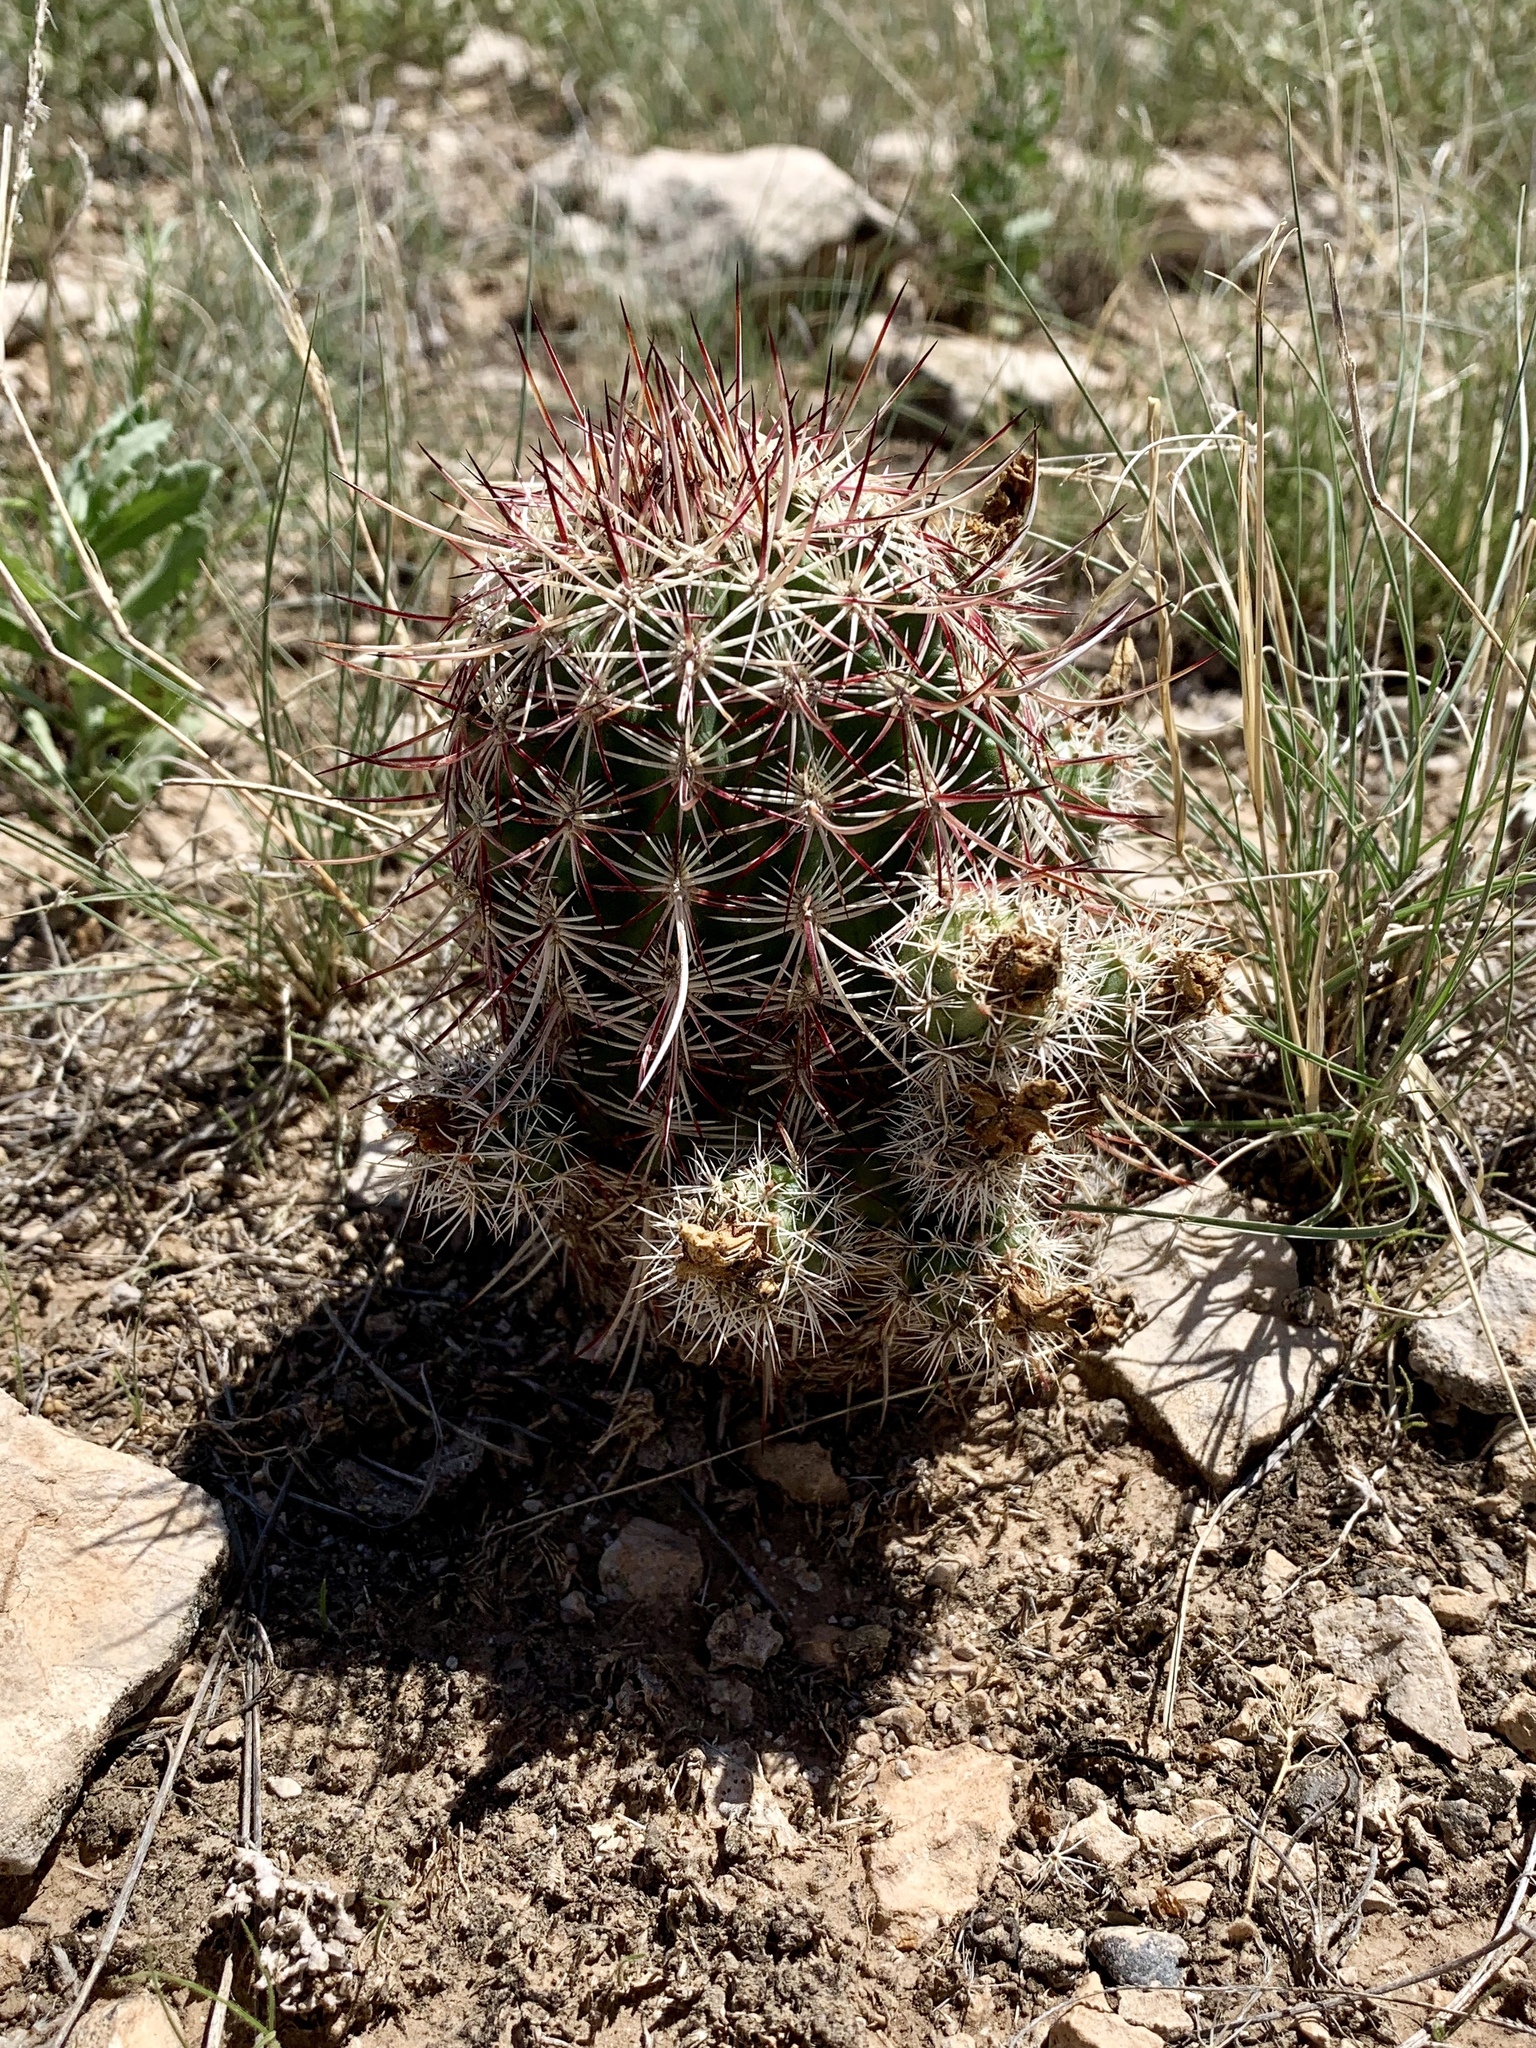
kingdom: Plantae
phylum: Tracheophyta
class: Magnoliopsida
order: Caryophyllales
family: Cactaceae
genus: Echinocereus
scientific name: Echinocereus viridiflorus
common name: Nylon hedgehog cactus
